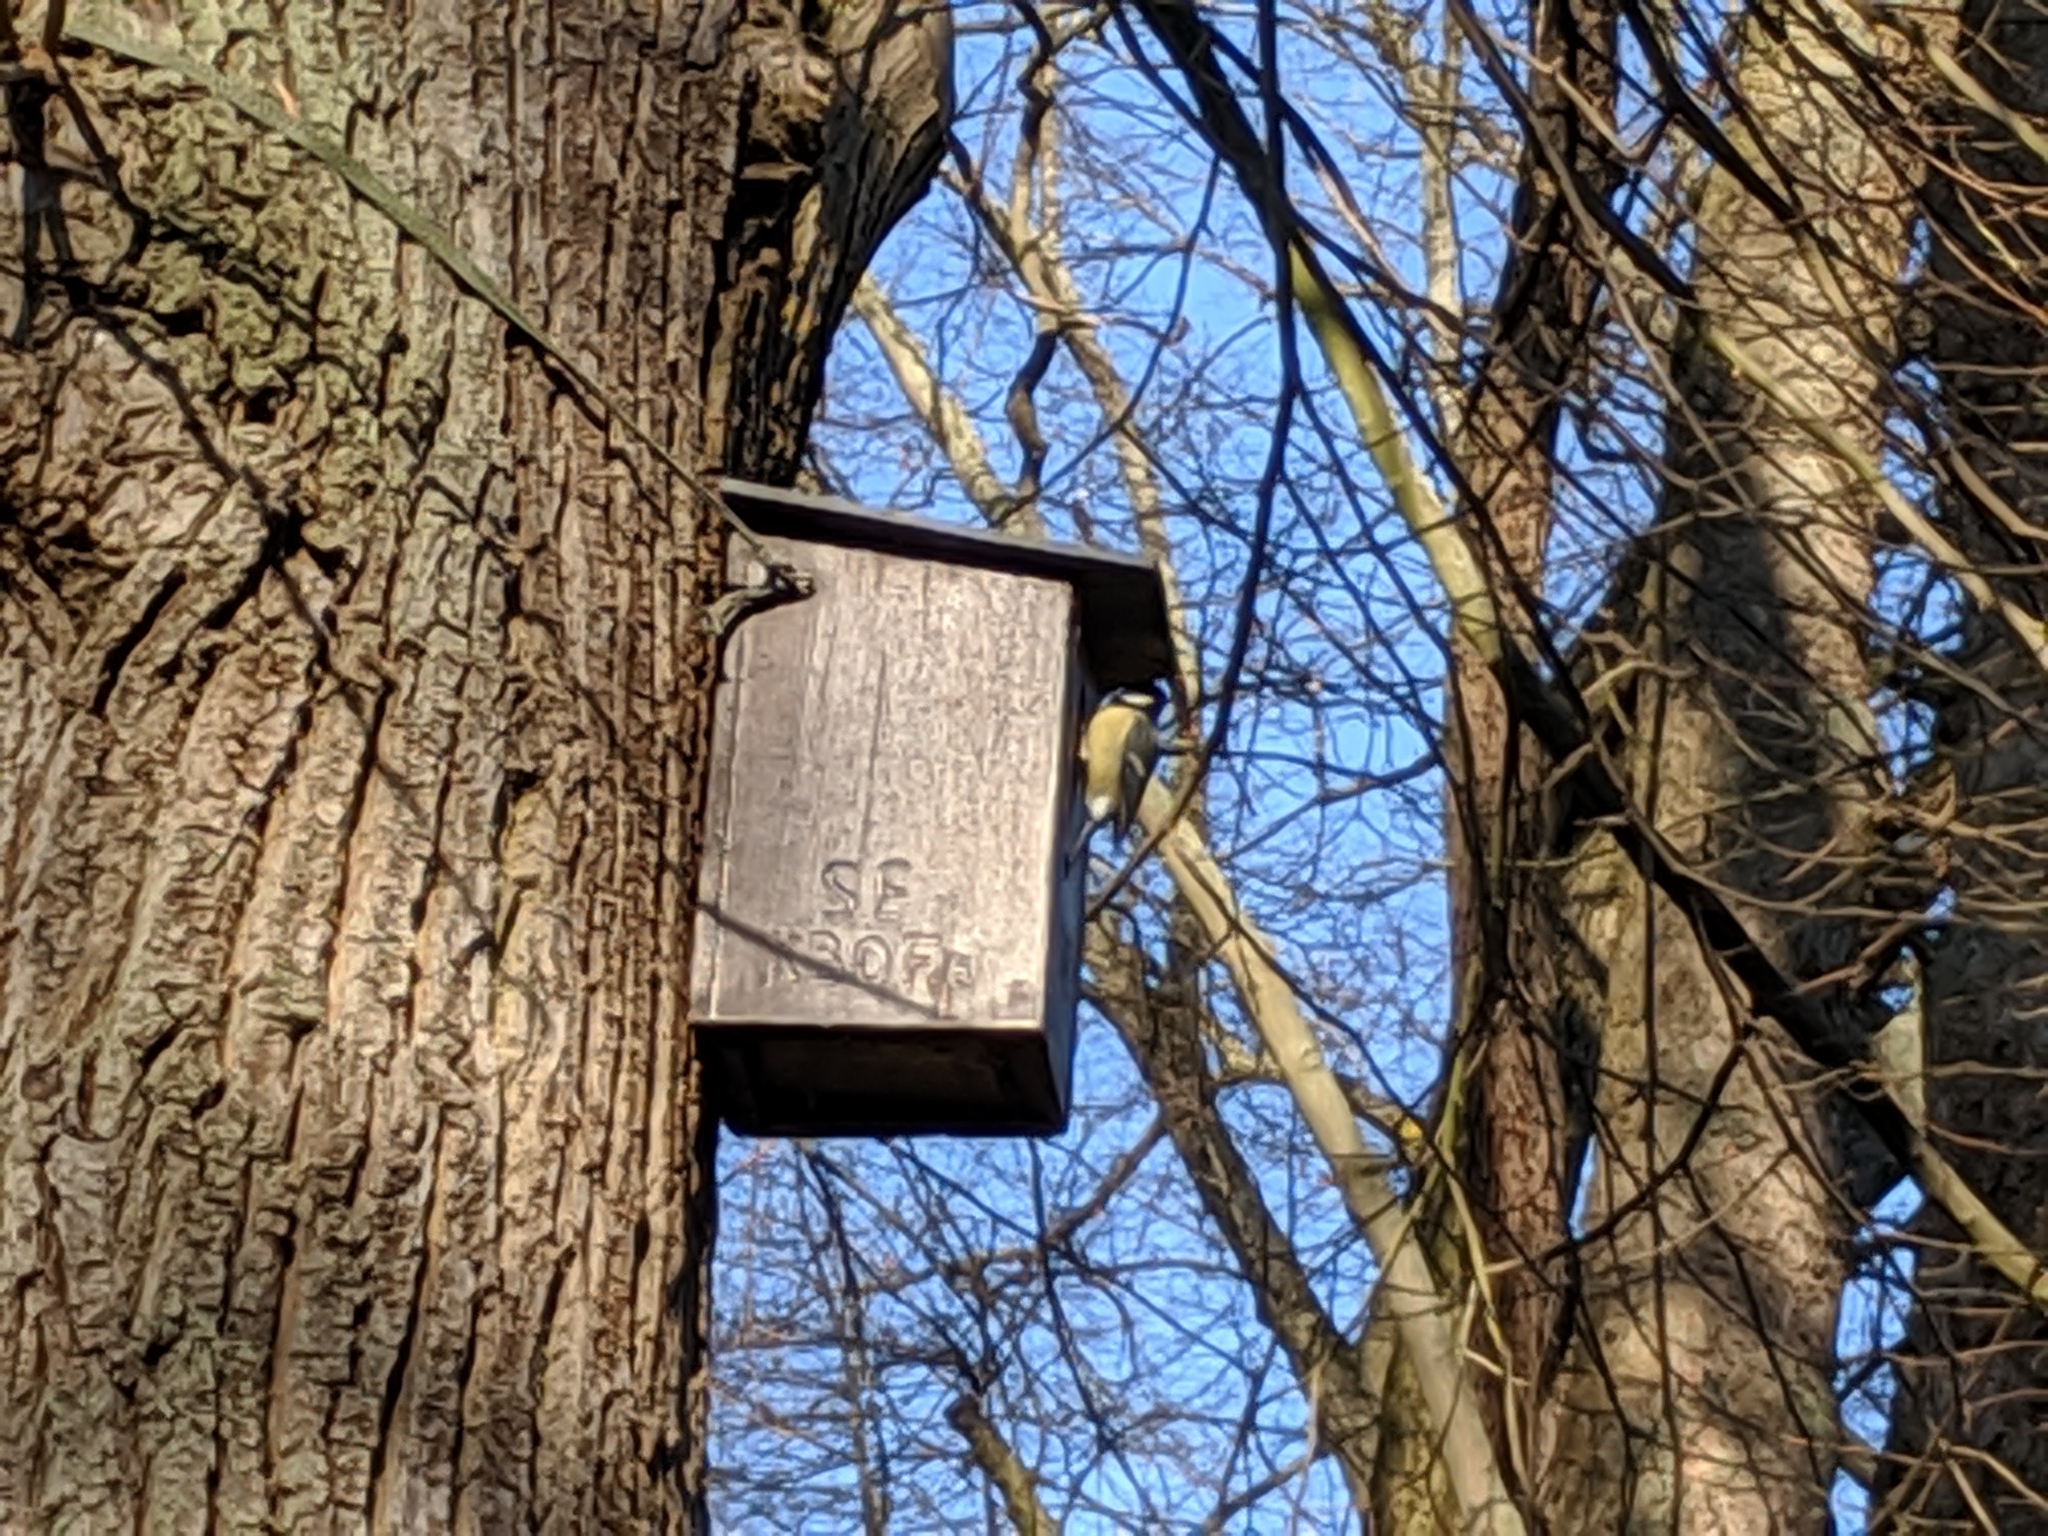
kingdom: Animalia
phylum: Chordata
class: Aves
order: Passeriformes
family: Paridae
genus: Parus
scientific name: Parus major
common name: Great tit
